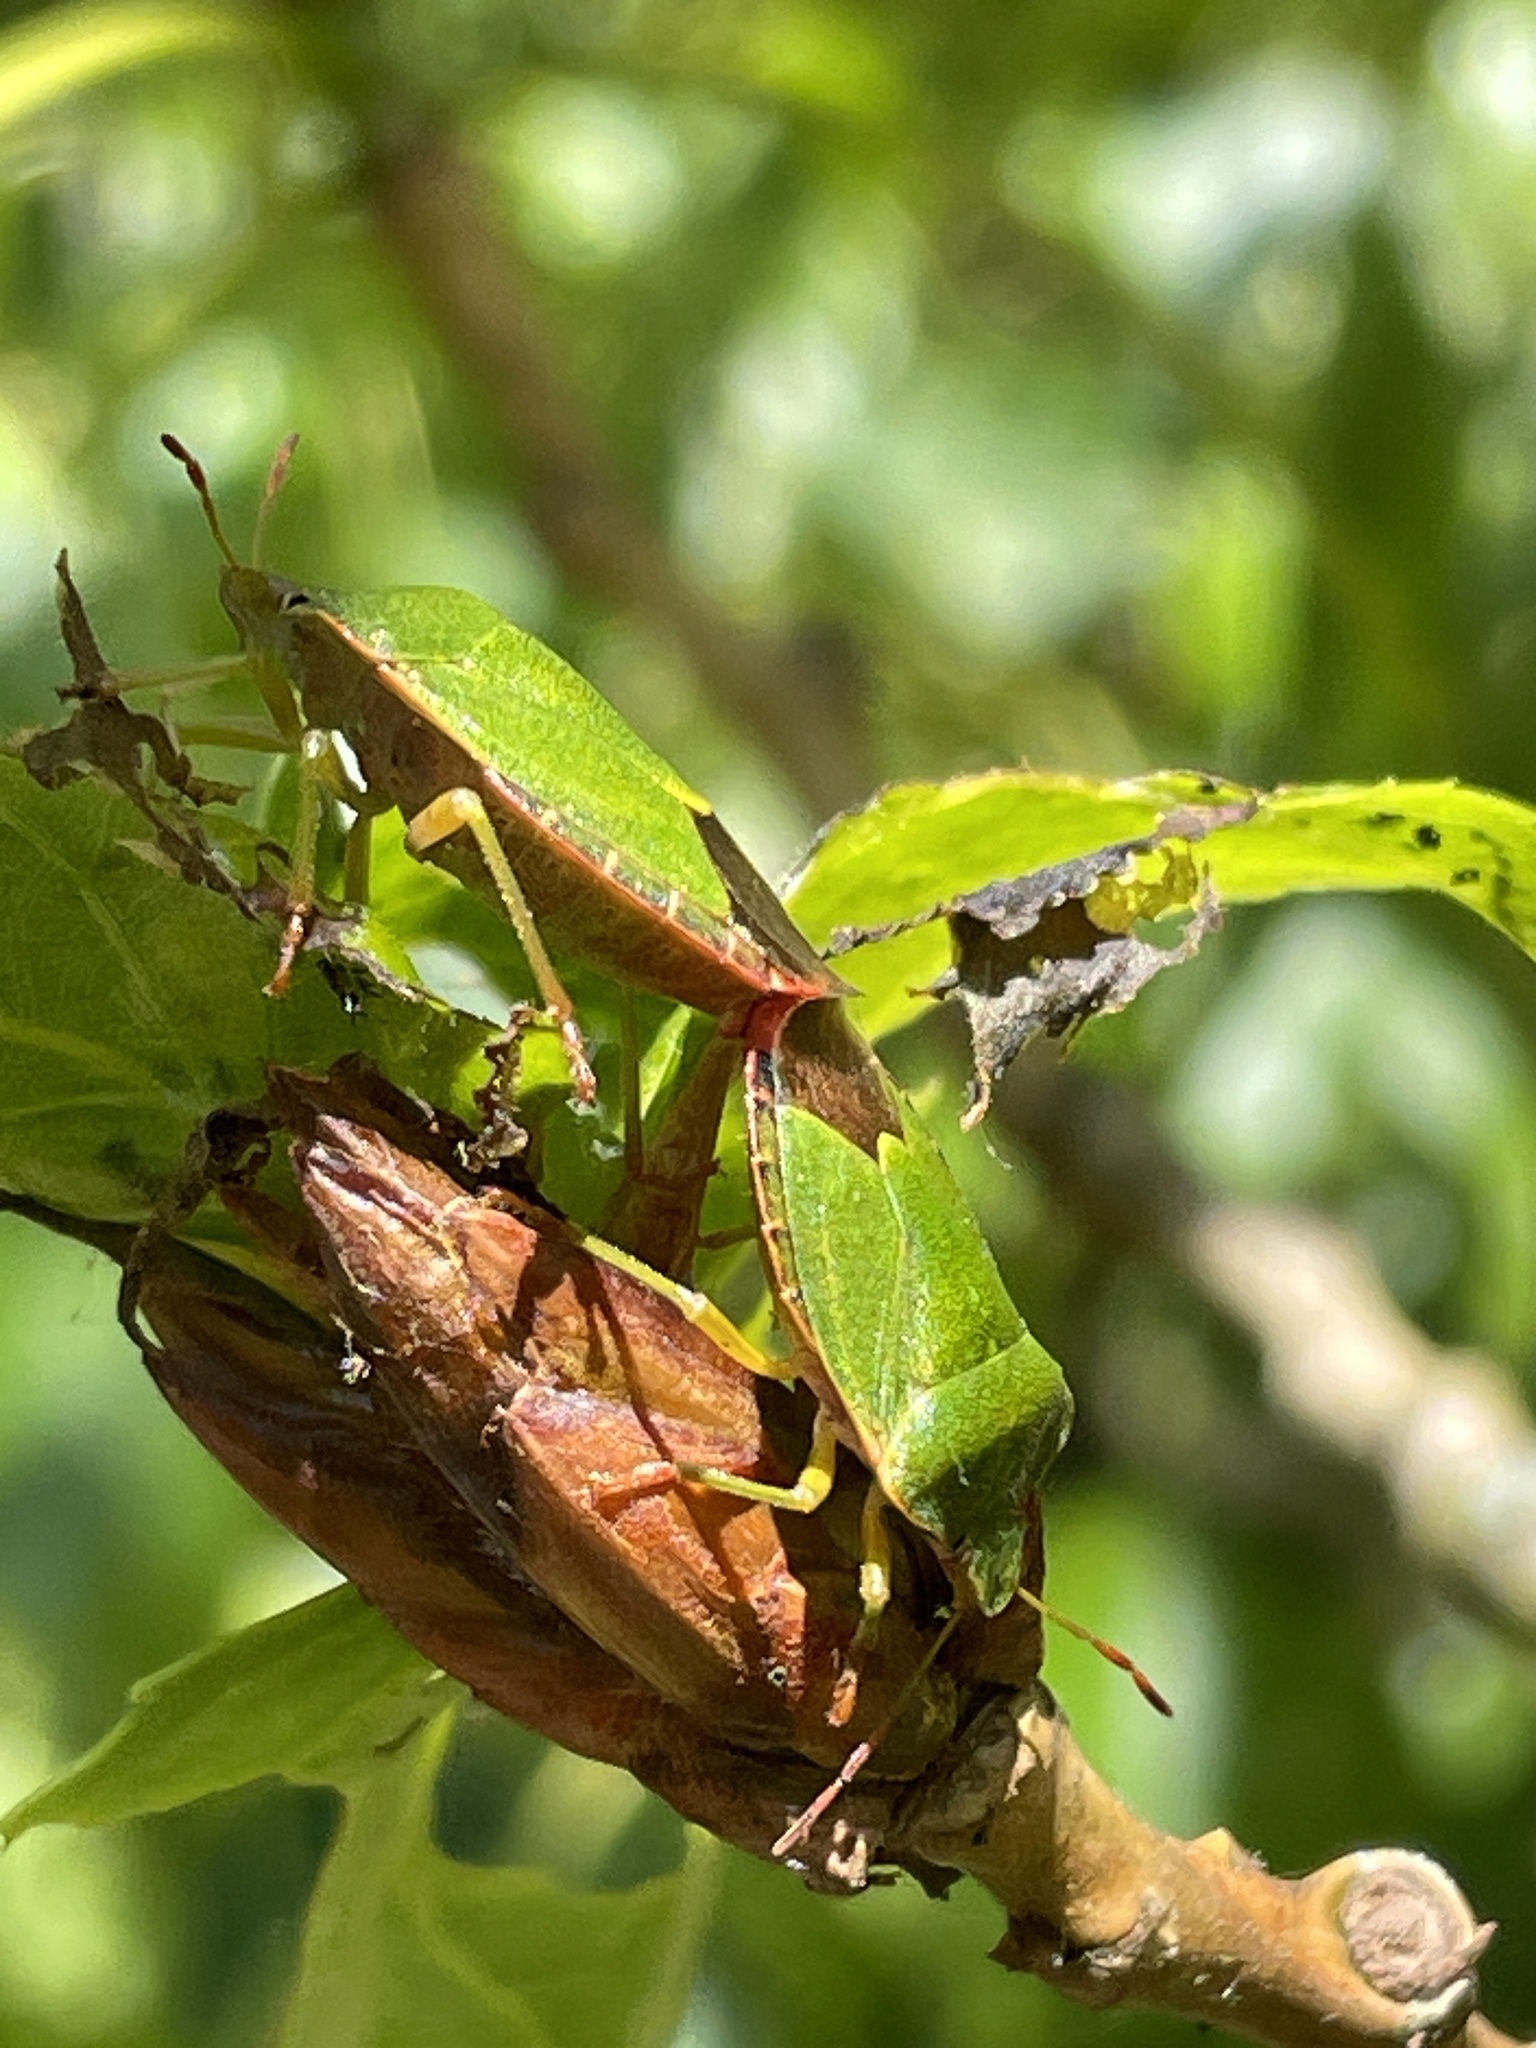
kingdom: Animalia
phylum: Arthropoda
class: Insecta
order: Hemiptera
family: Pentatomidae
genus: Palomena
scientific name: Palomena prasina
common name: Green shieldbug
